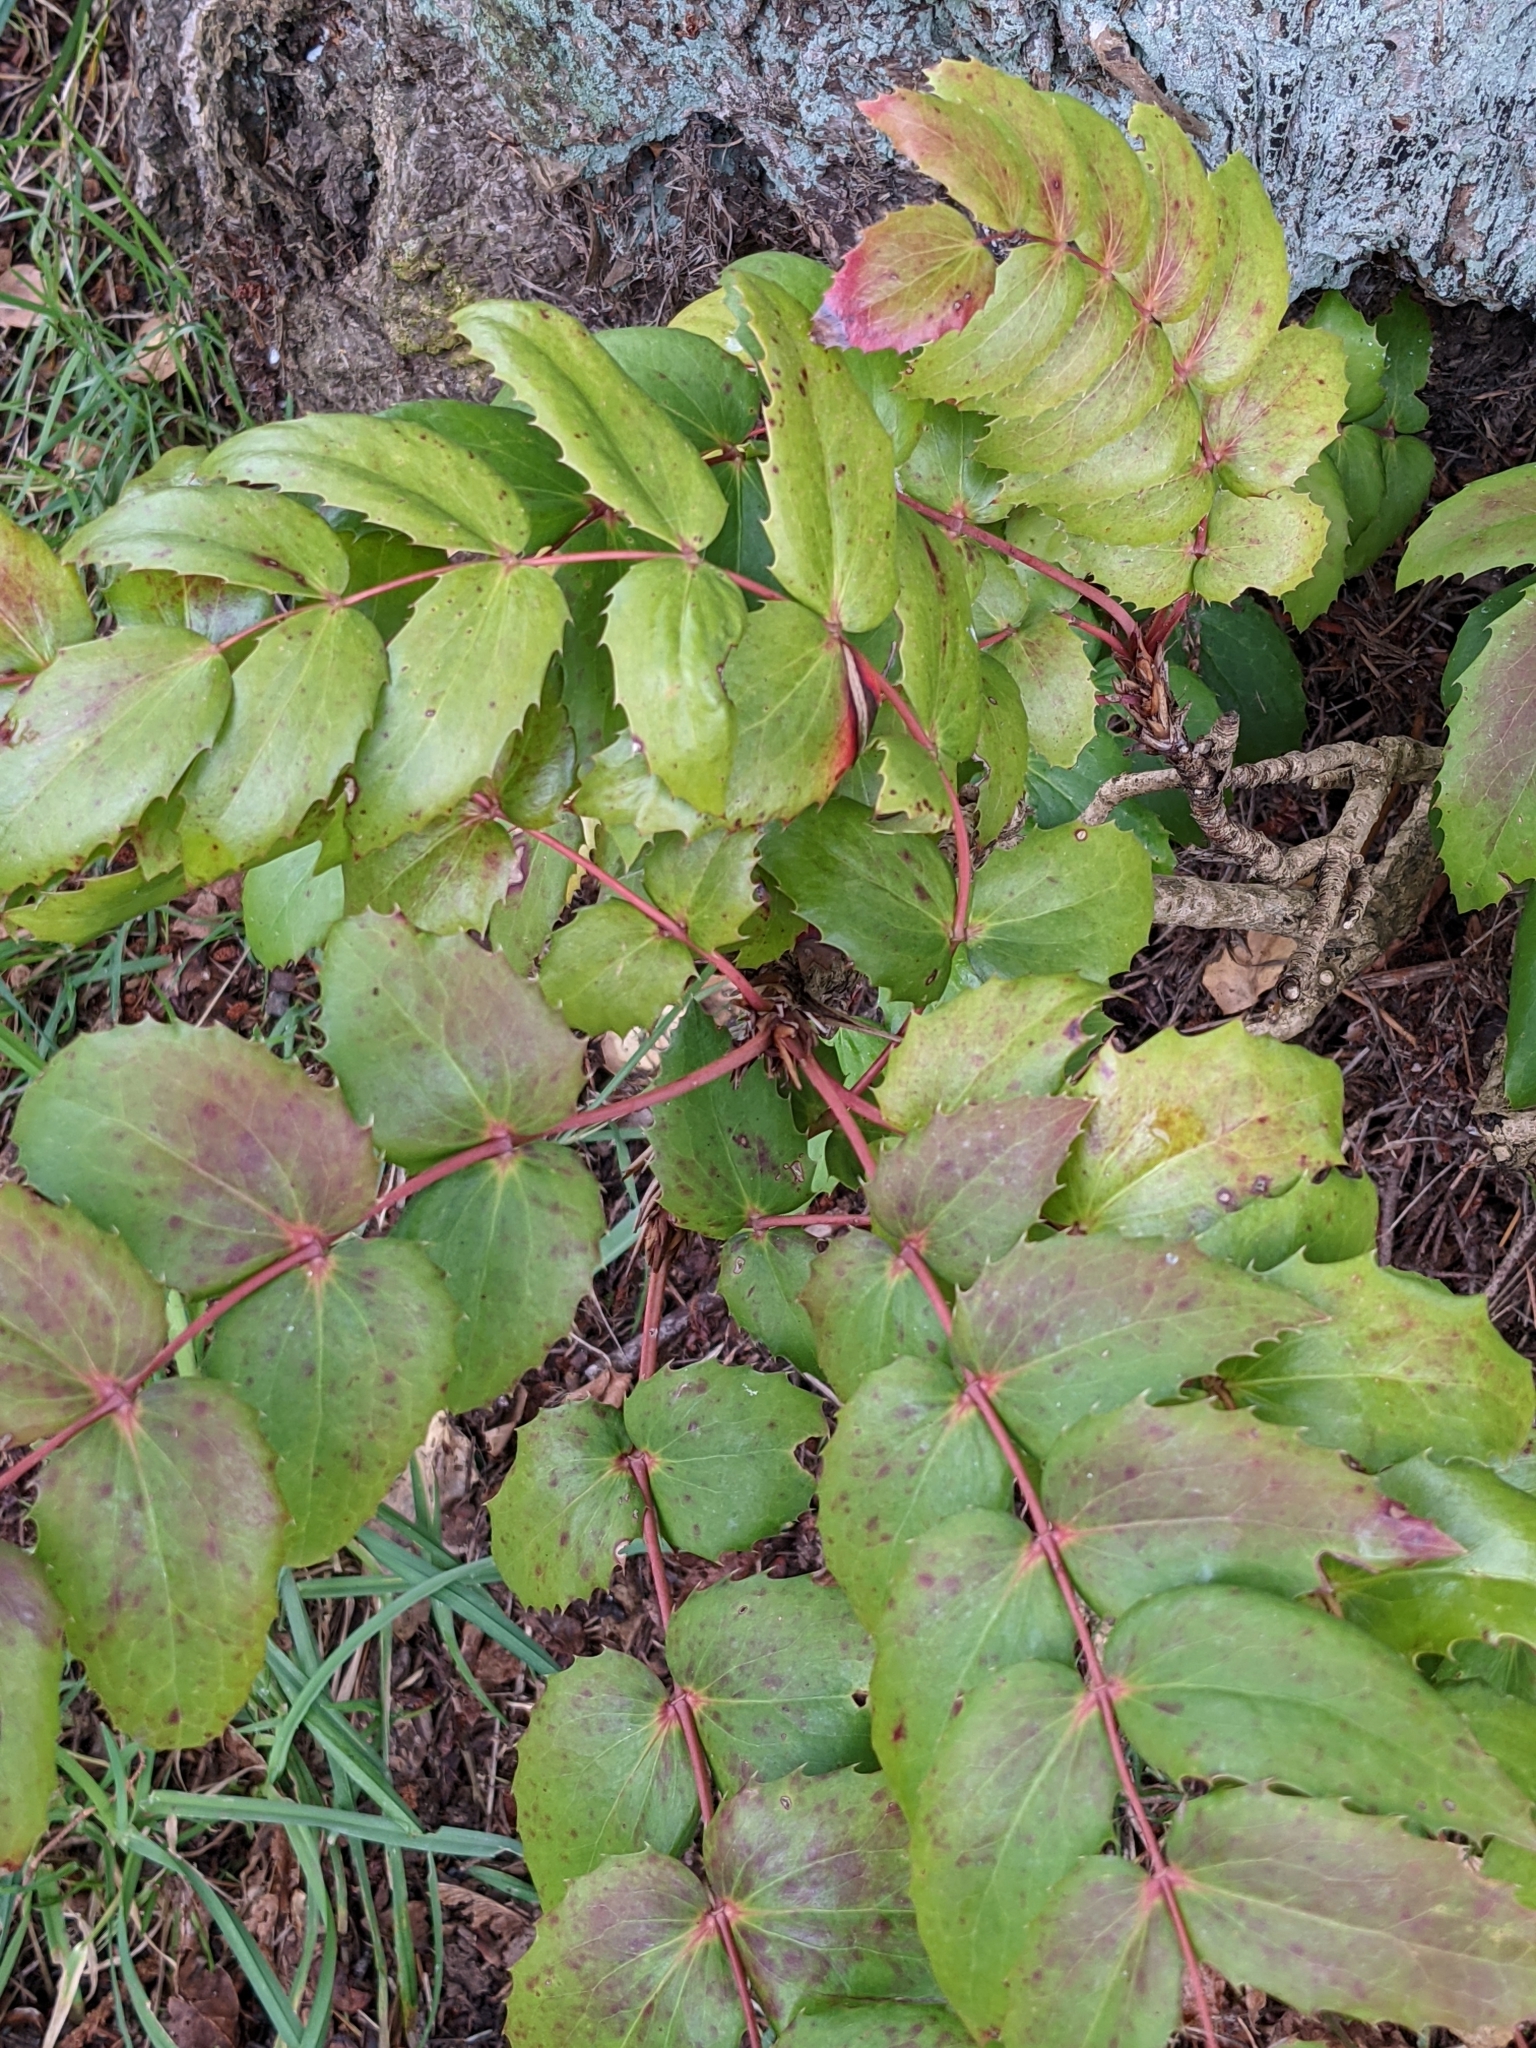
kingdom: Plantae
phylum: Tracheophyta
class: Magnoliopsida
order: Ranunculales
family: Berberidaceae
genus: Mahonia
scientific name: Mahonia nervosa
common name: Cascade oregon-grape
